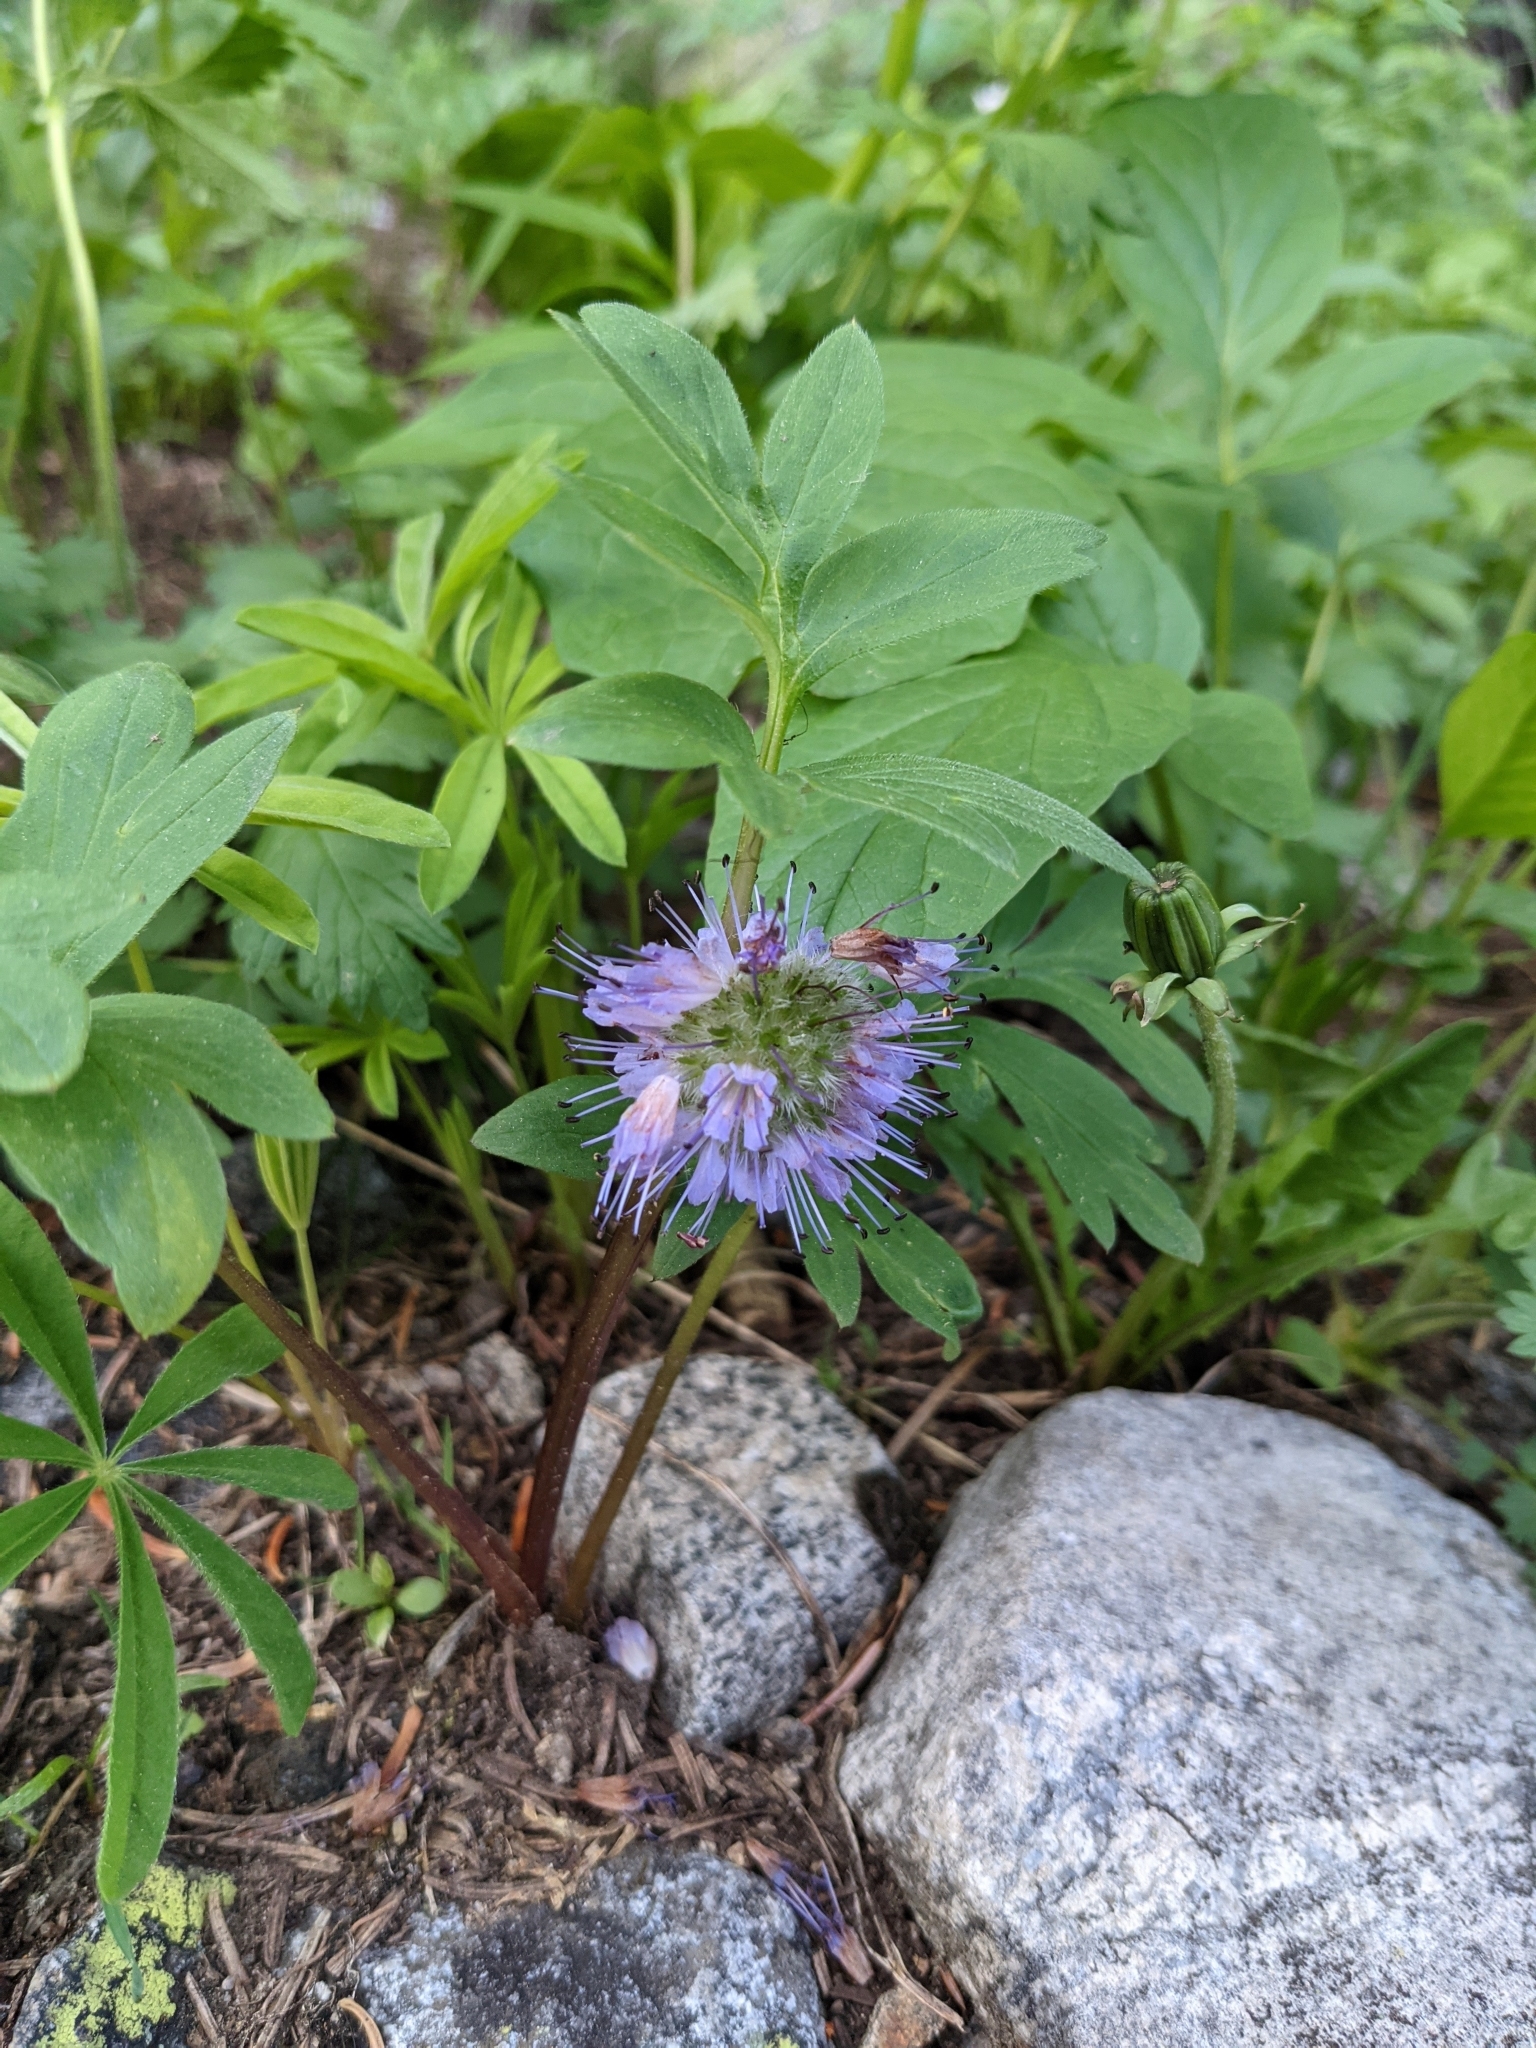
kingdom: Plantae
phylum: Tracheophyta
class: Magnoliopsida
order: Boraginales
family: Hydrophyllaceae
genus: Hydrophyllum
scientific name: Hydrophyllum capitatum
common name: Woollen-breeches
